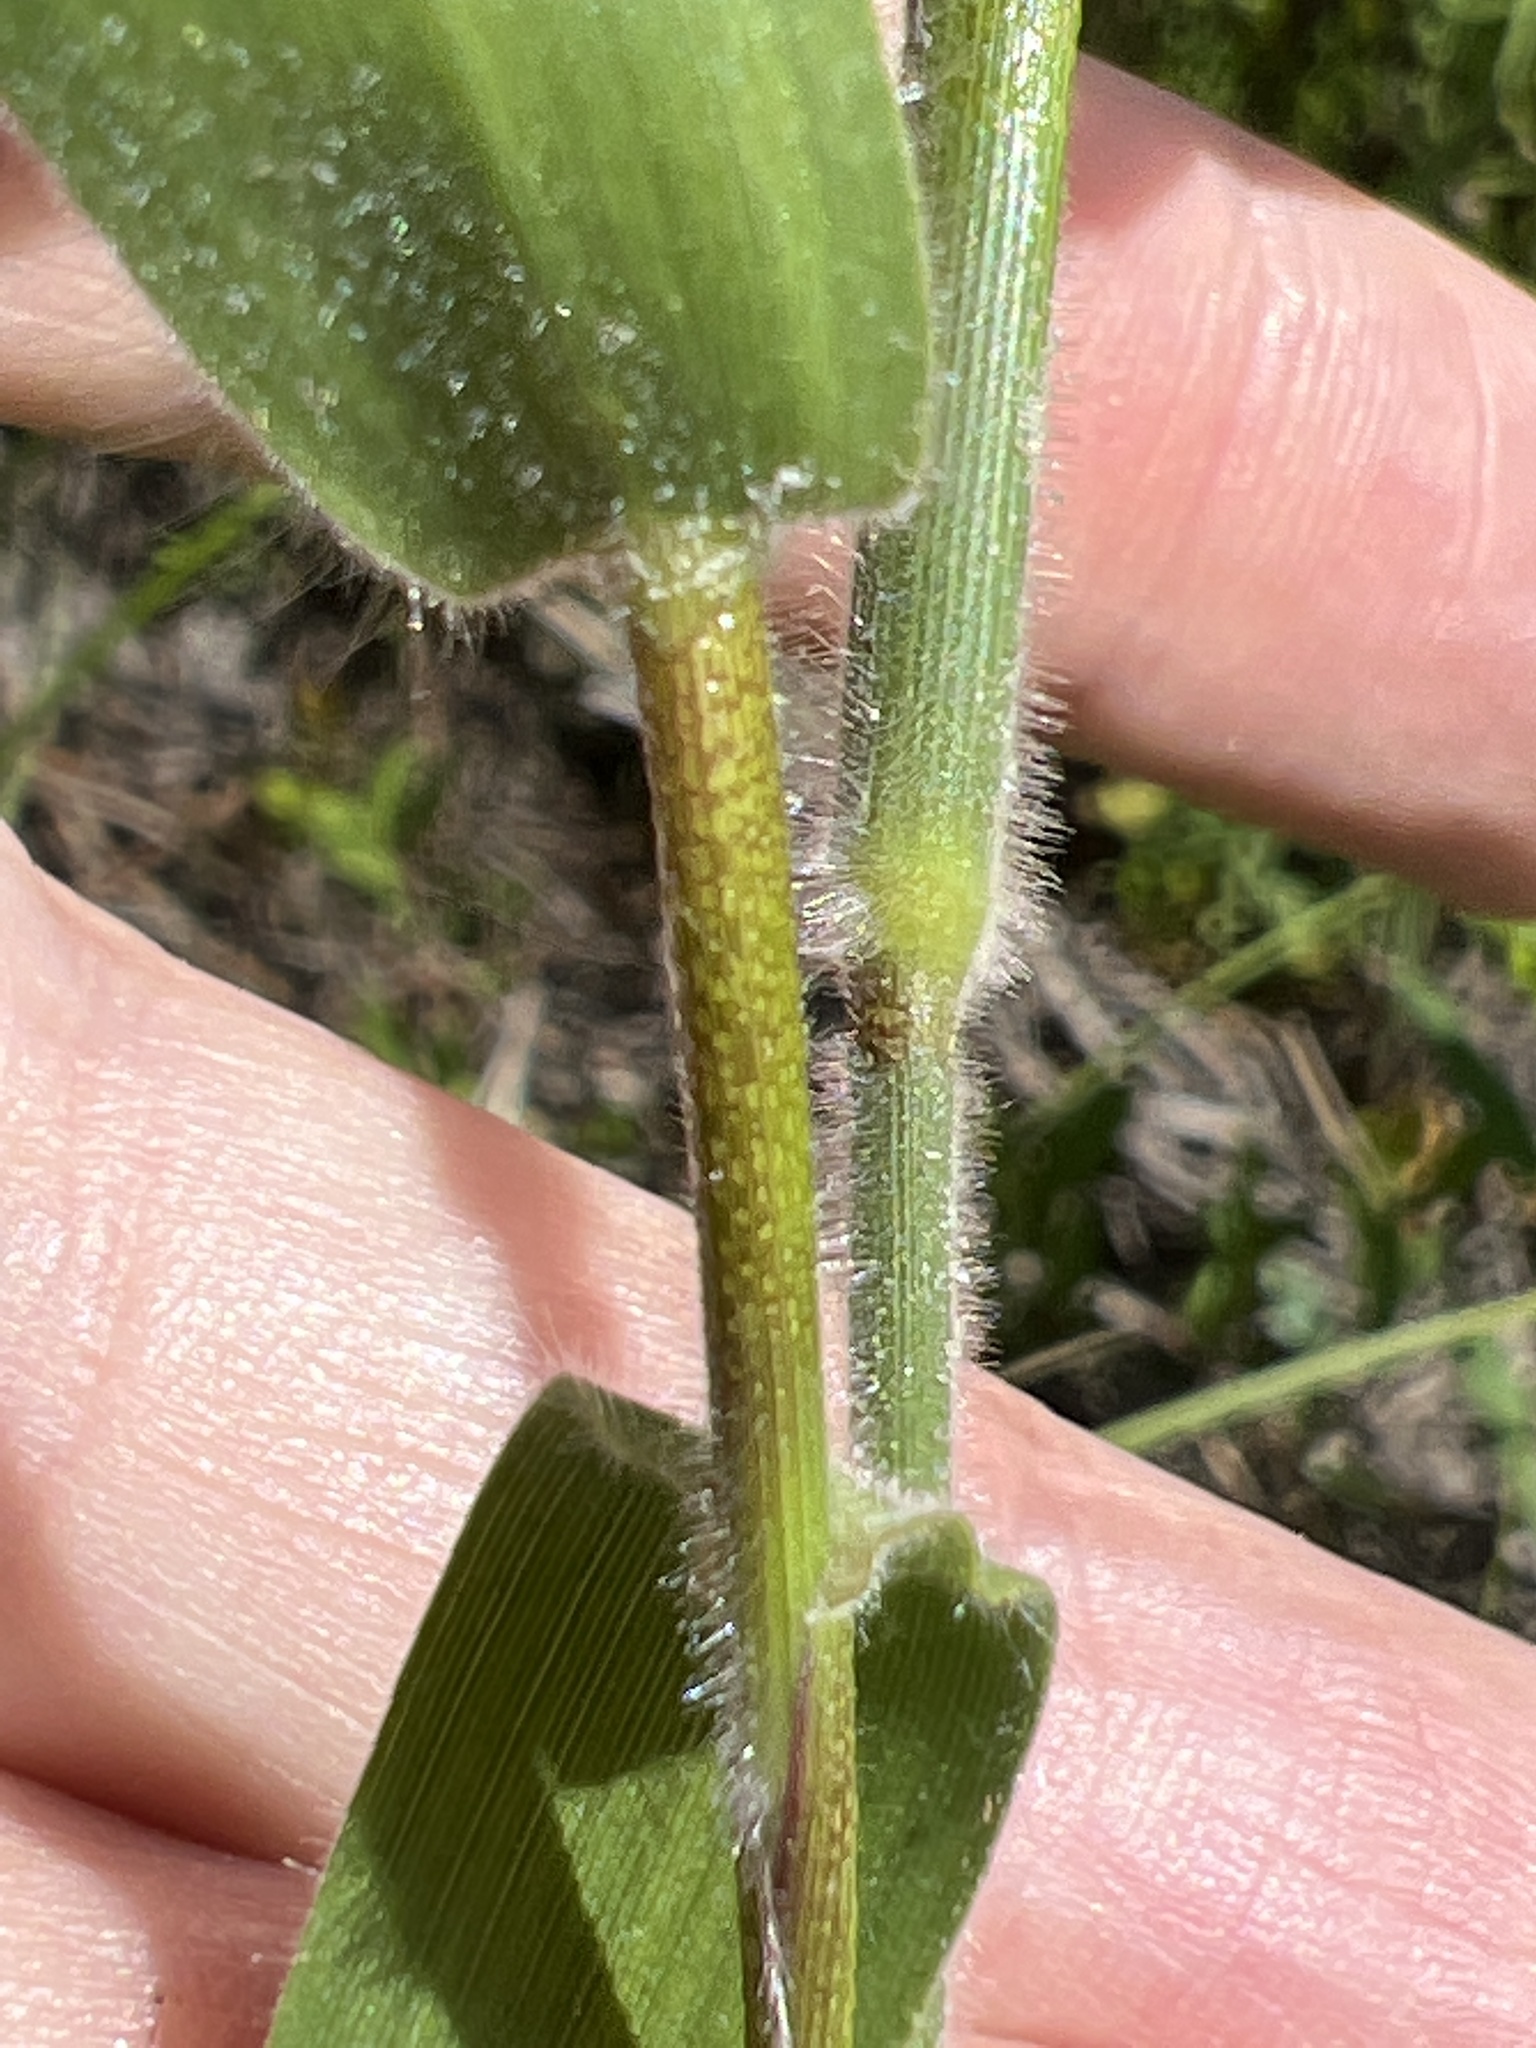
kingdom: Plantae
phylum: Tracheophyta
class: Liliopsida
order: Poales
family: Poaceae
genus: Dichanthelium
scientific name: Dichanthelium scoparium
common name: Velvety panic grass
